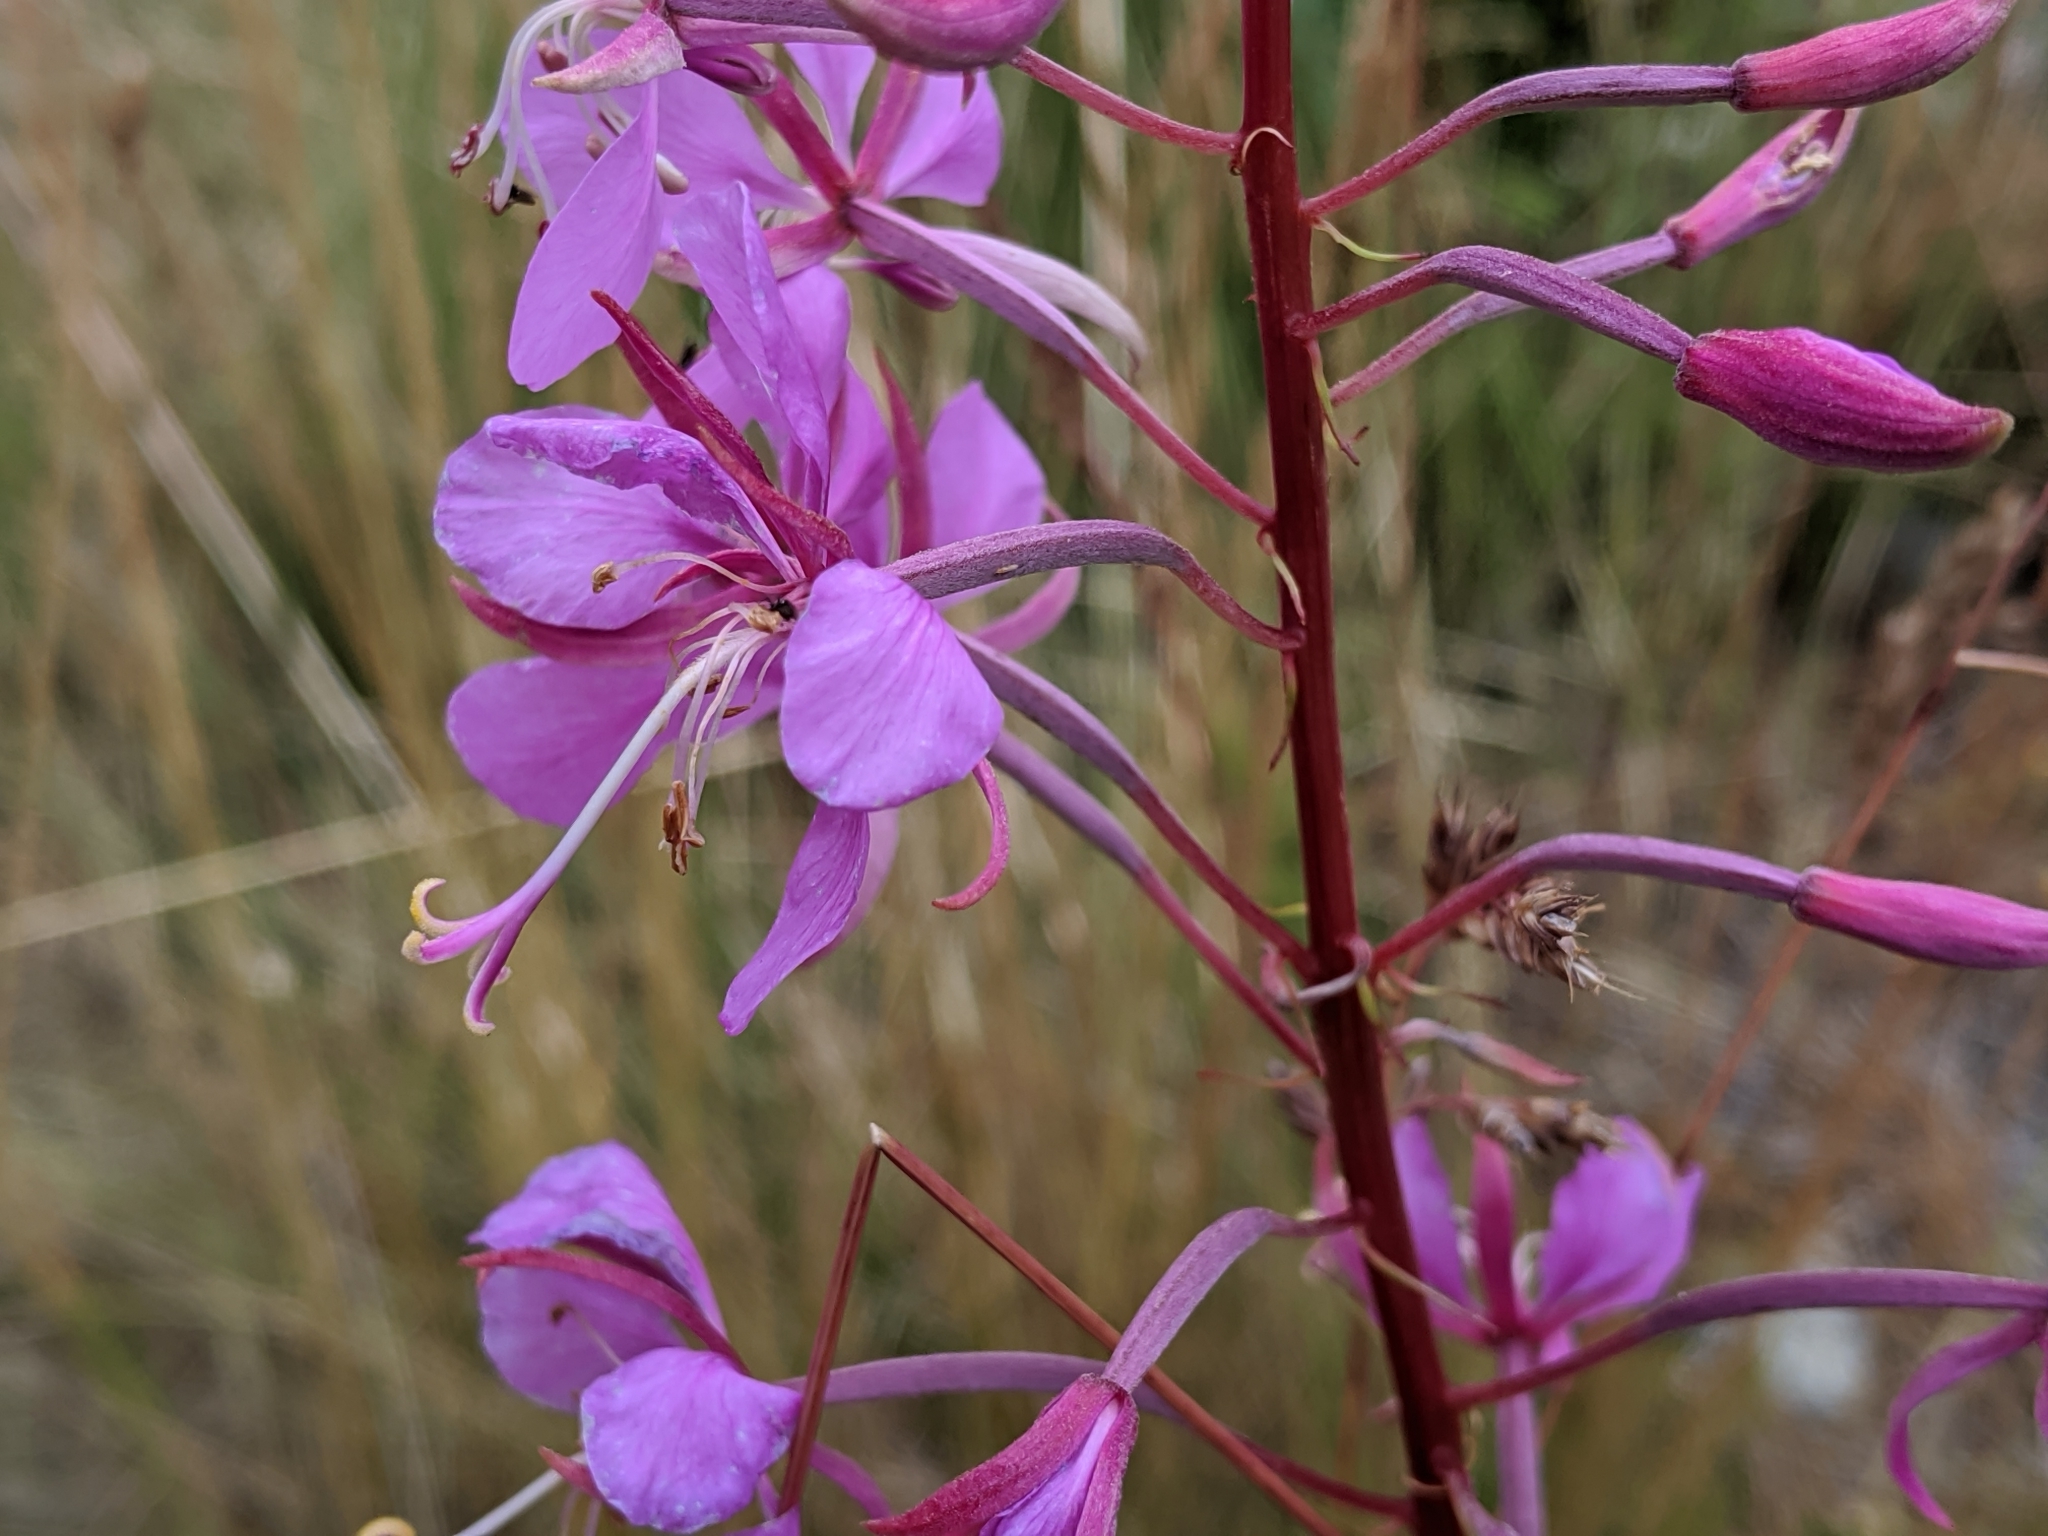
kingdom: Plantae
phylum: Tracheophyta
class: Magnoliopsida
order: Myrtales
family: Onagraceae
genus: Chamaenerion
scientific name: Chamaenerion angustifolium
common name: Fireweed
